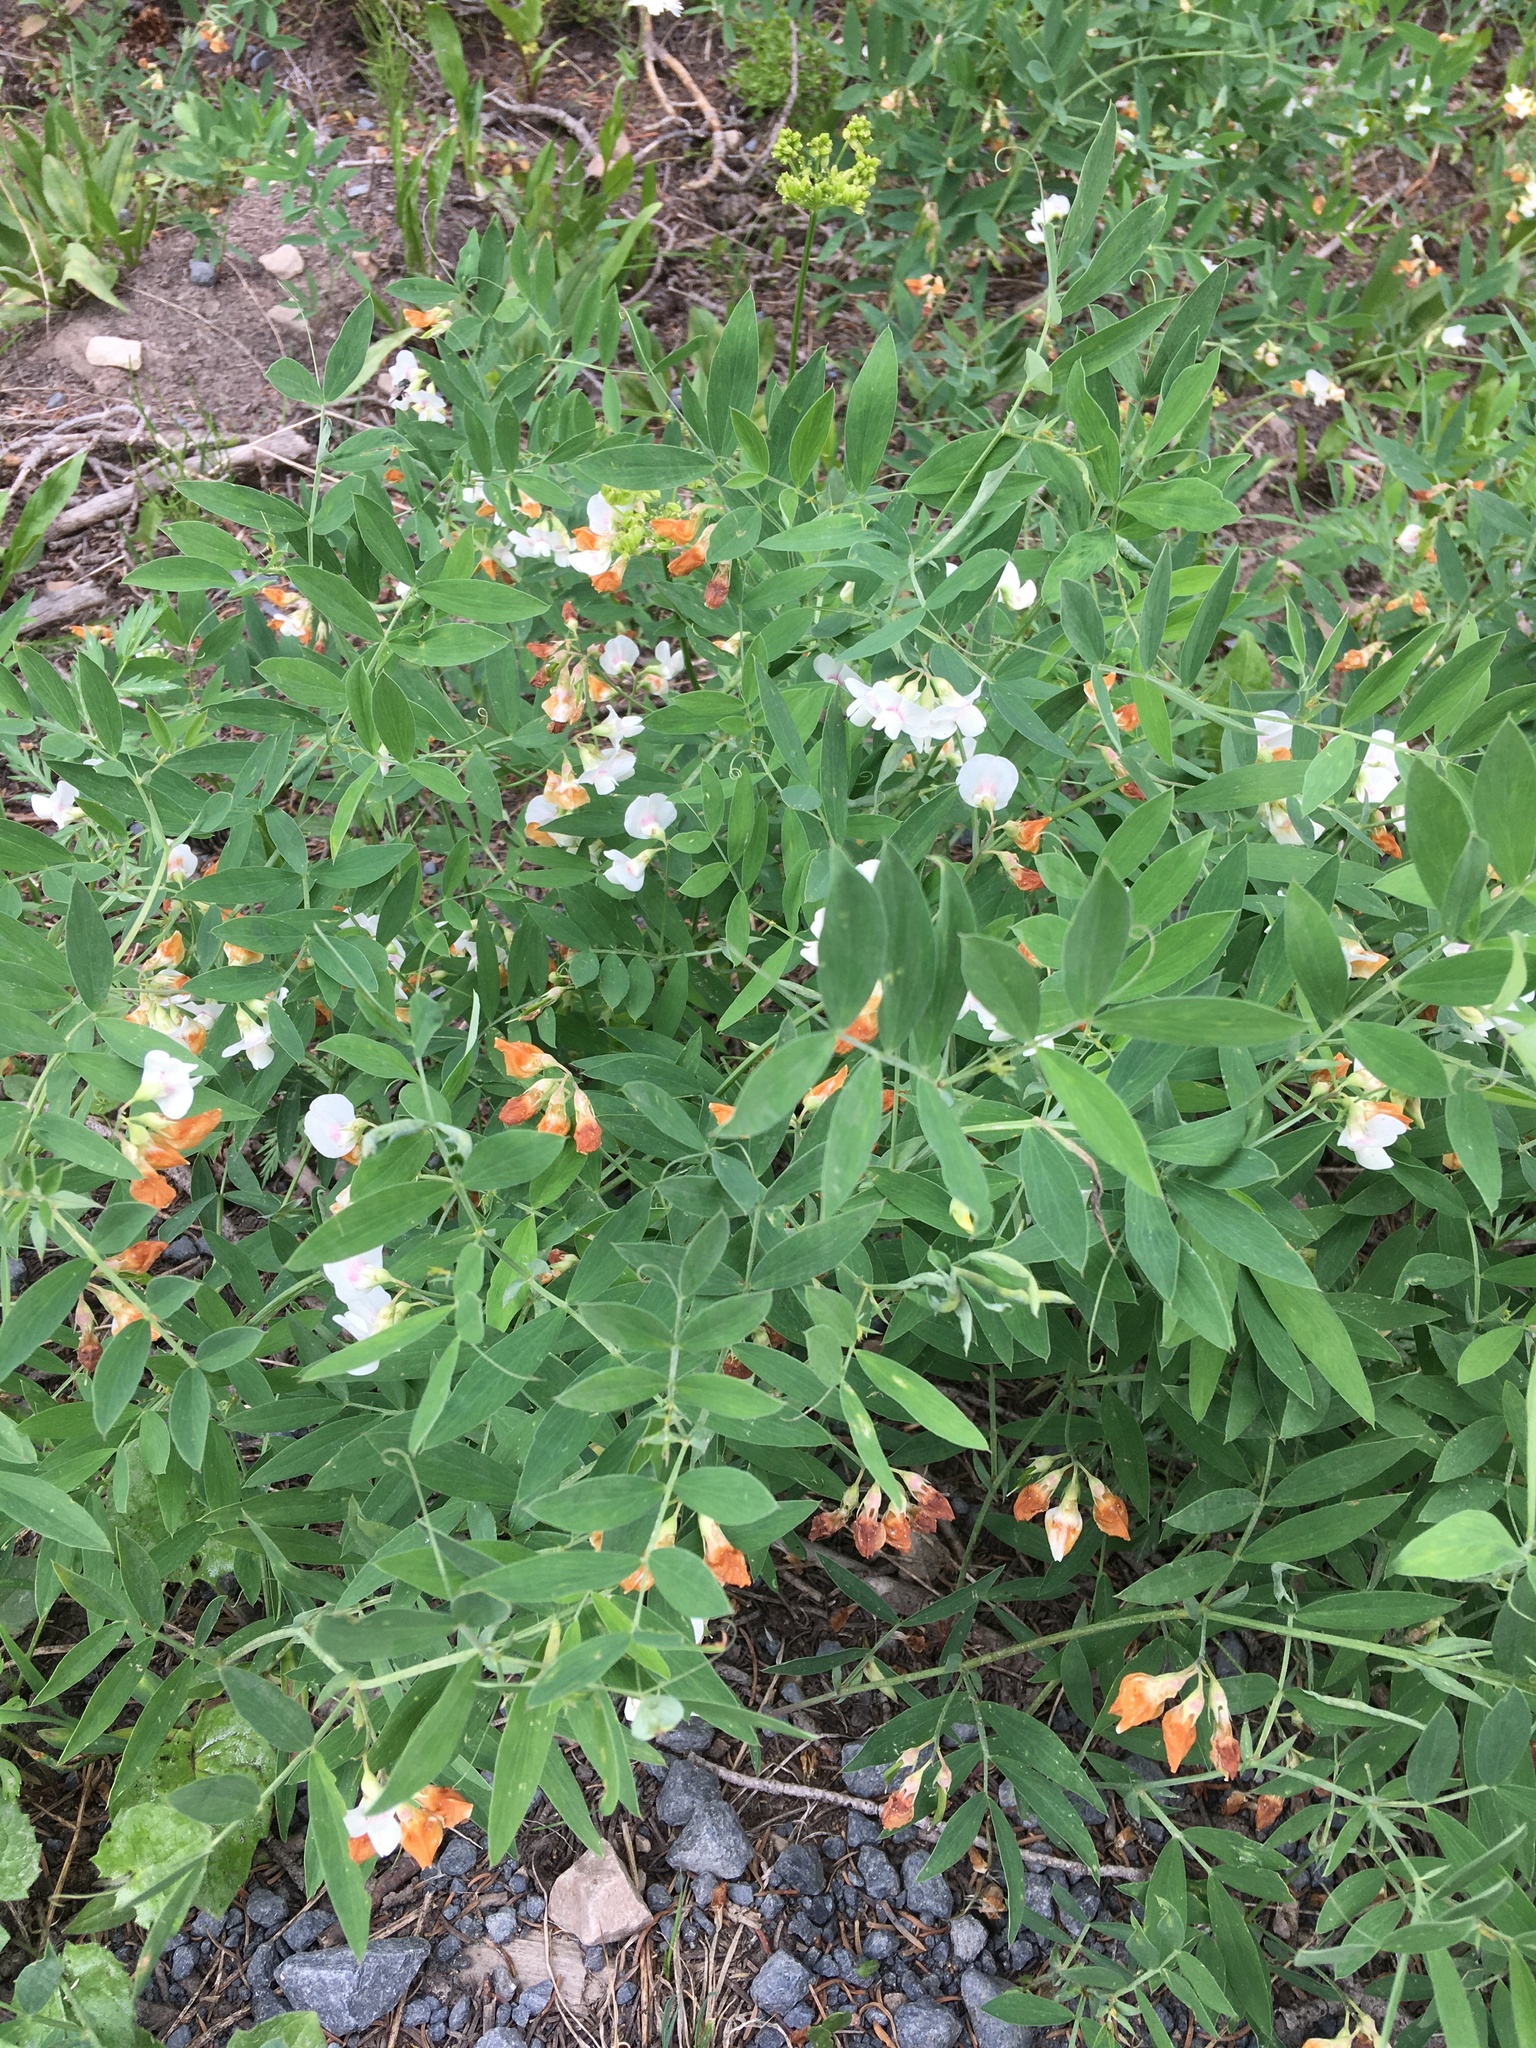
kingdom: Plantae
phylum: Tracheophyta
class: Magnoliopsida
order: Fabales
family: Fabaceae
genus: Lathyrus
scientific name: Lathyrus lanszwertii
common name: Lanszwert's vetchling
